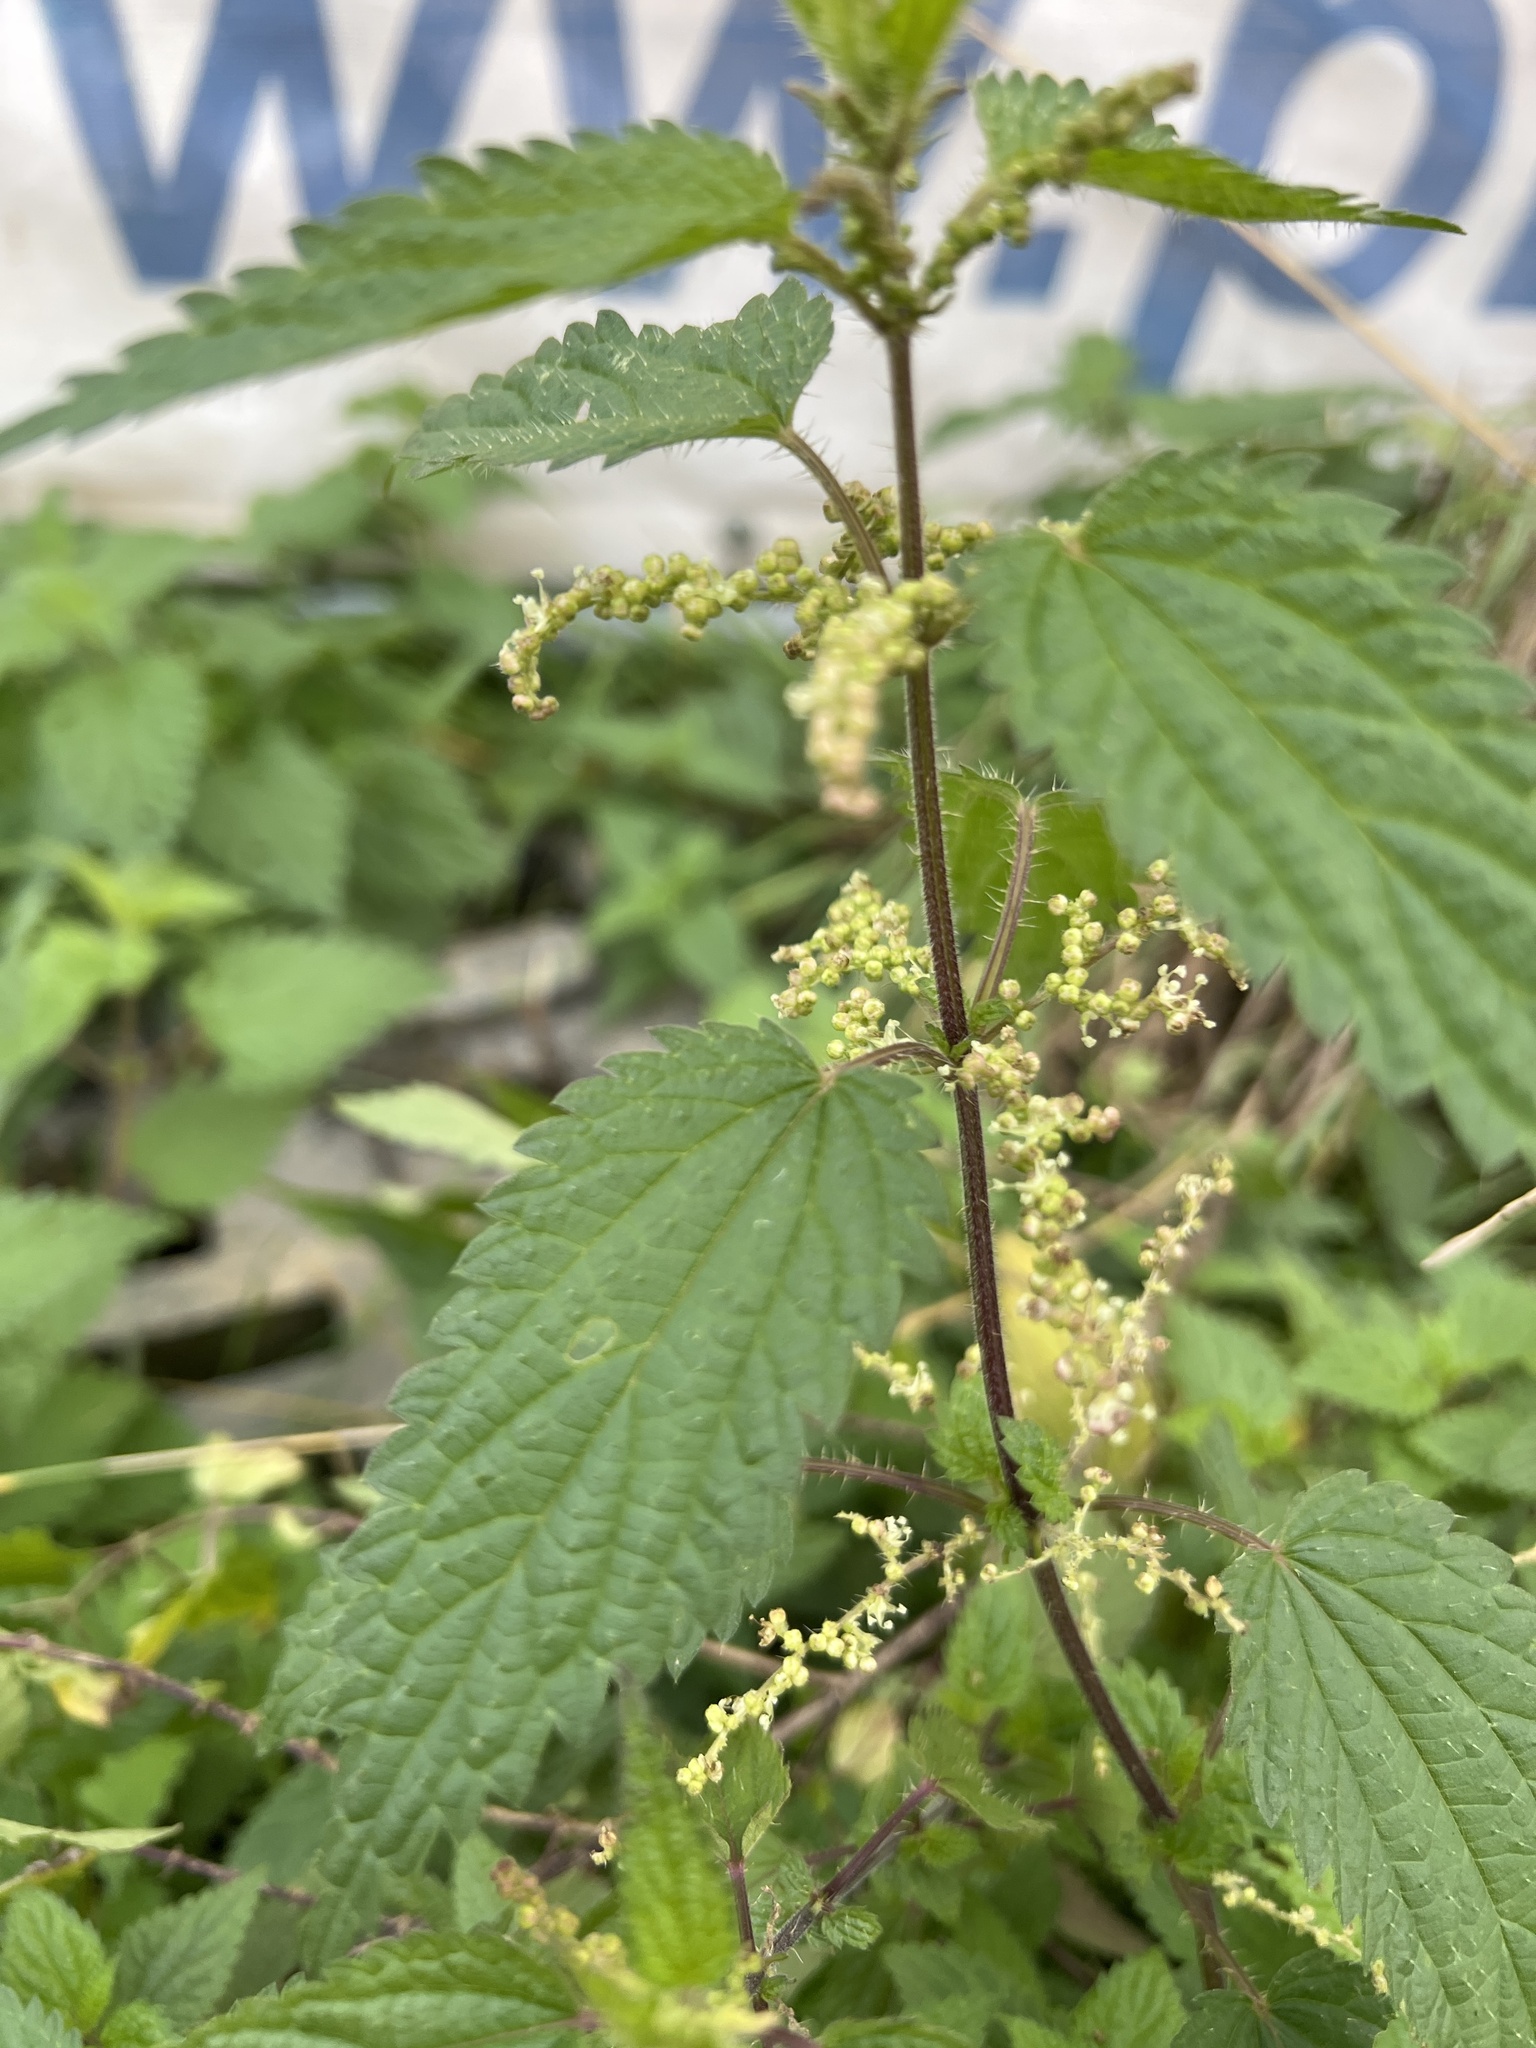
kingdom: Plantae
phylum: Tracheophyta
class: Magnoliopsida
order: Rosales
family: Urticaceae
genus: Urtica
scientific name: Urtica dioica
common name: Common nettle
